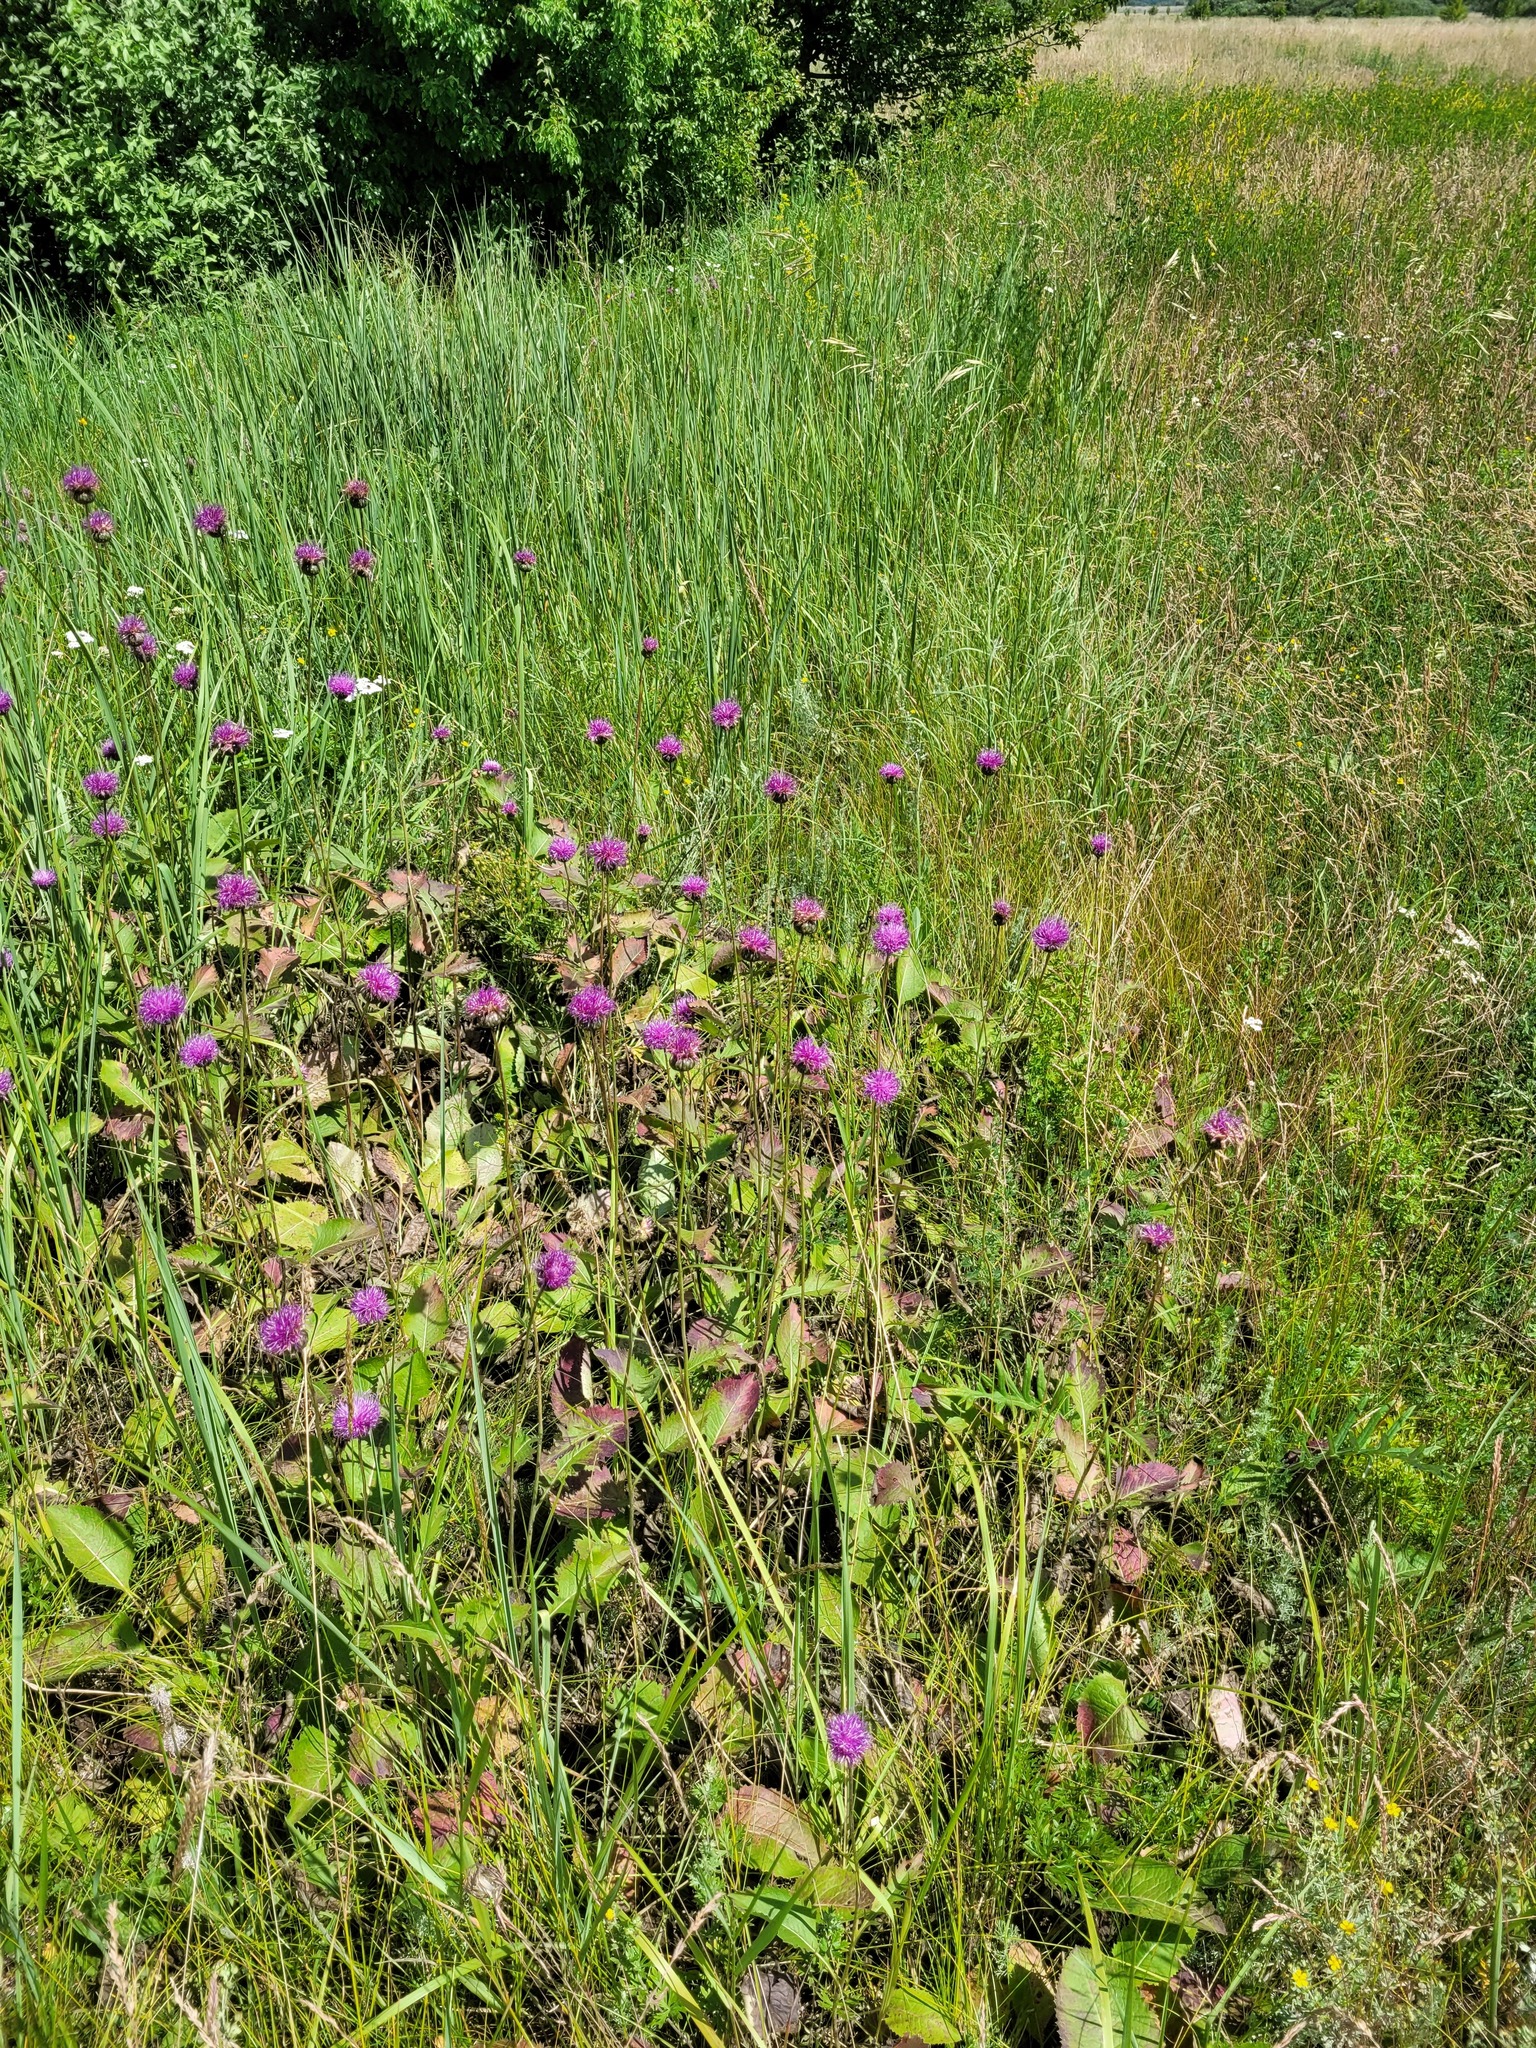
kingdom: Plantae
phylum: Tracheophyta
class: Magnoliopsida
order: Asterales
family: Asteraceae
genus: Klasea
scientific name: Klasea lycopifolia
